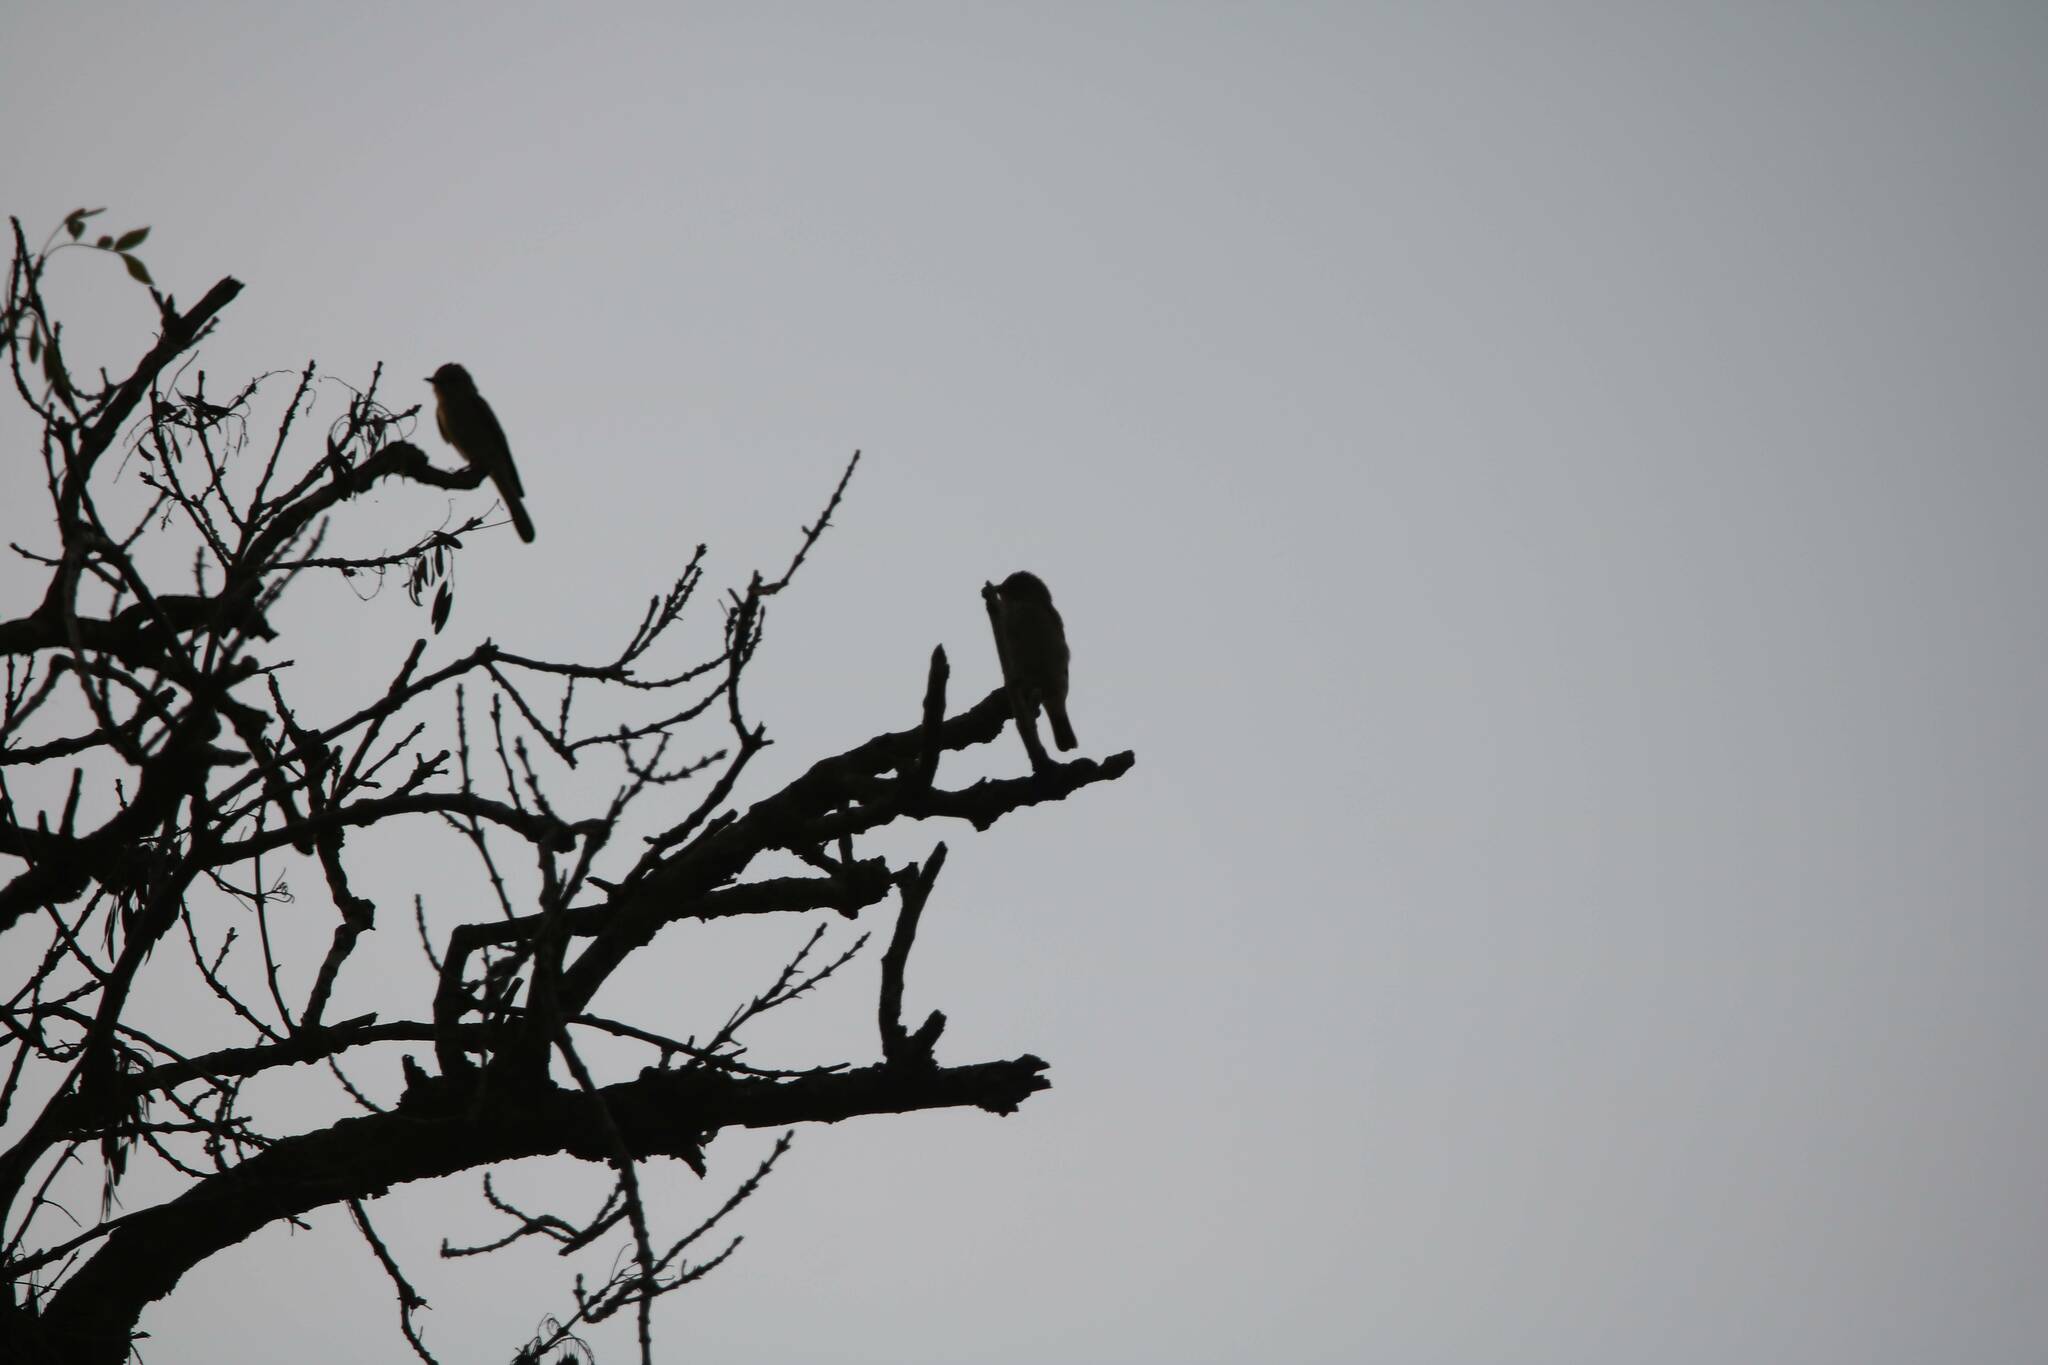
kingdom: Animalia
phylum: Chordata
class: Aves
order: Passeriformes
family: Muscicapidae
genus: Muscicapa
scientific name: Muscicapa striata
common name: Spotted flycatcher
